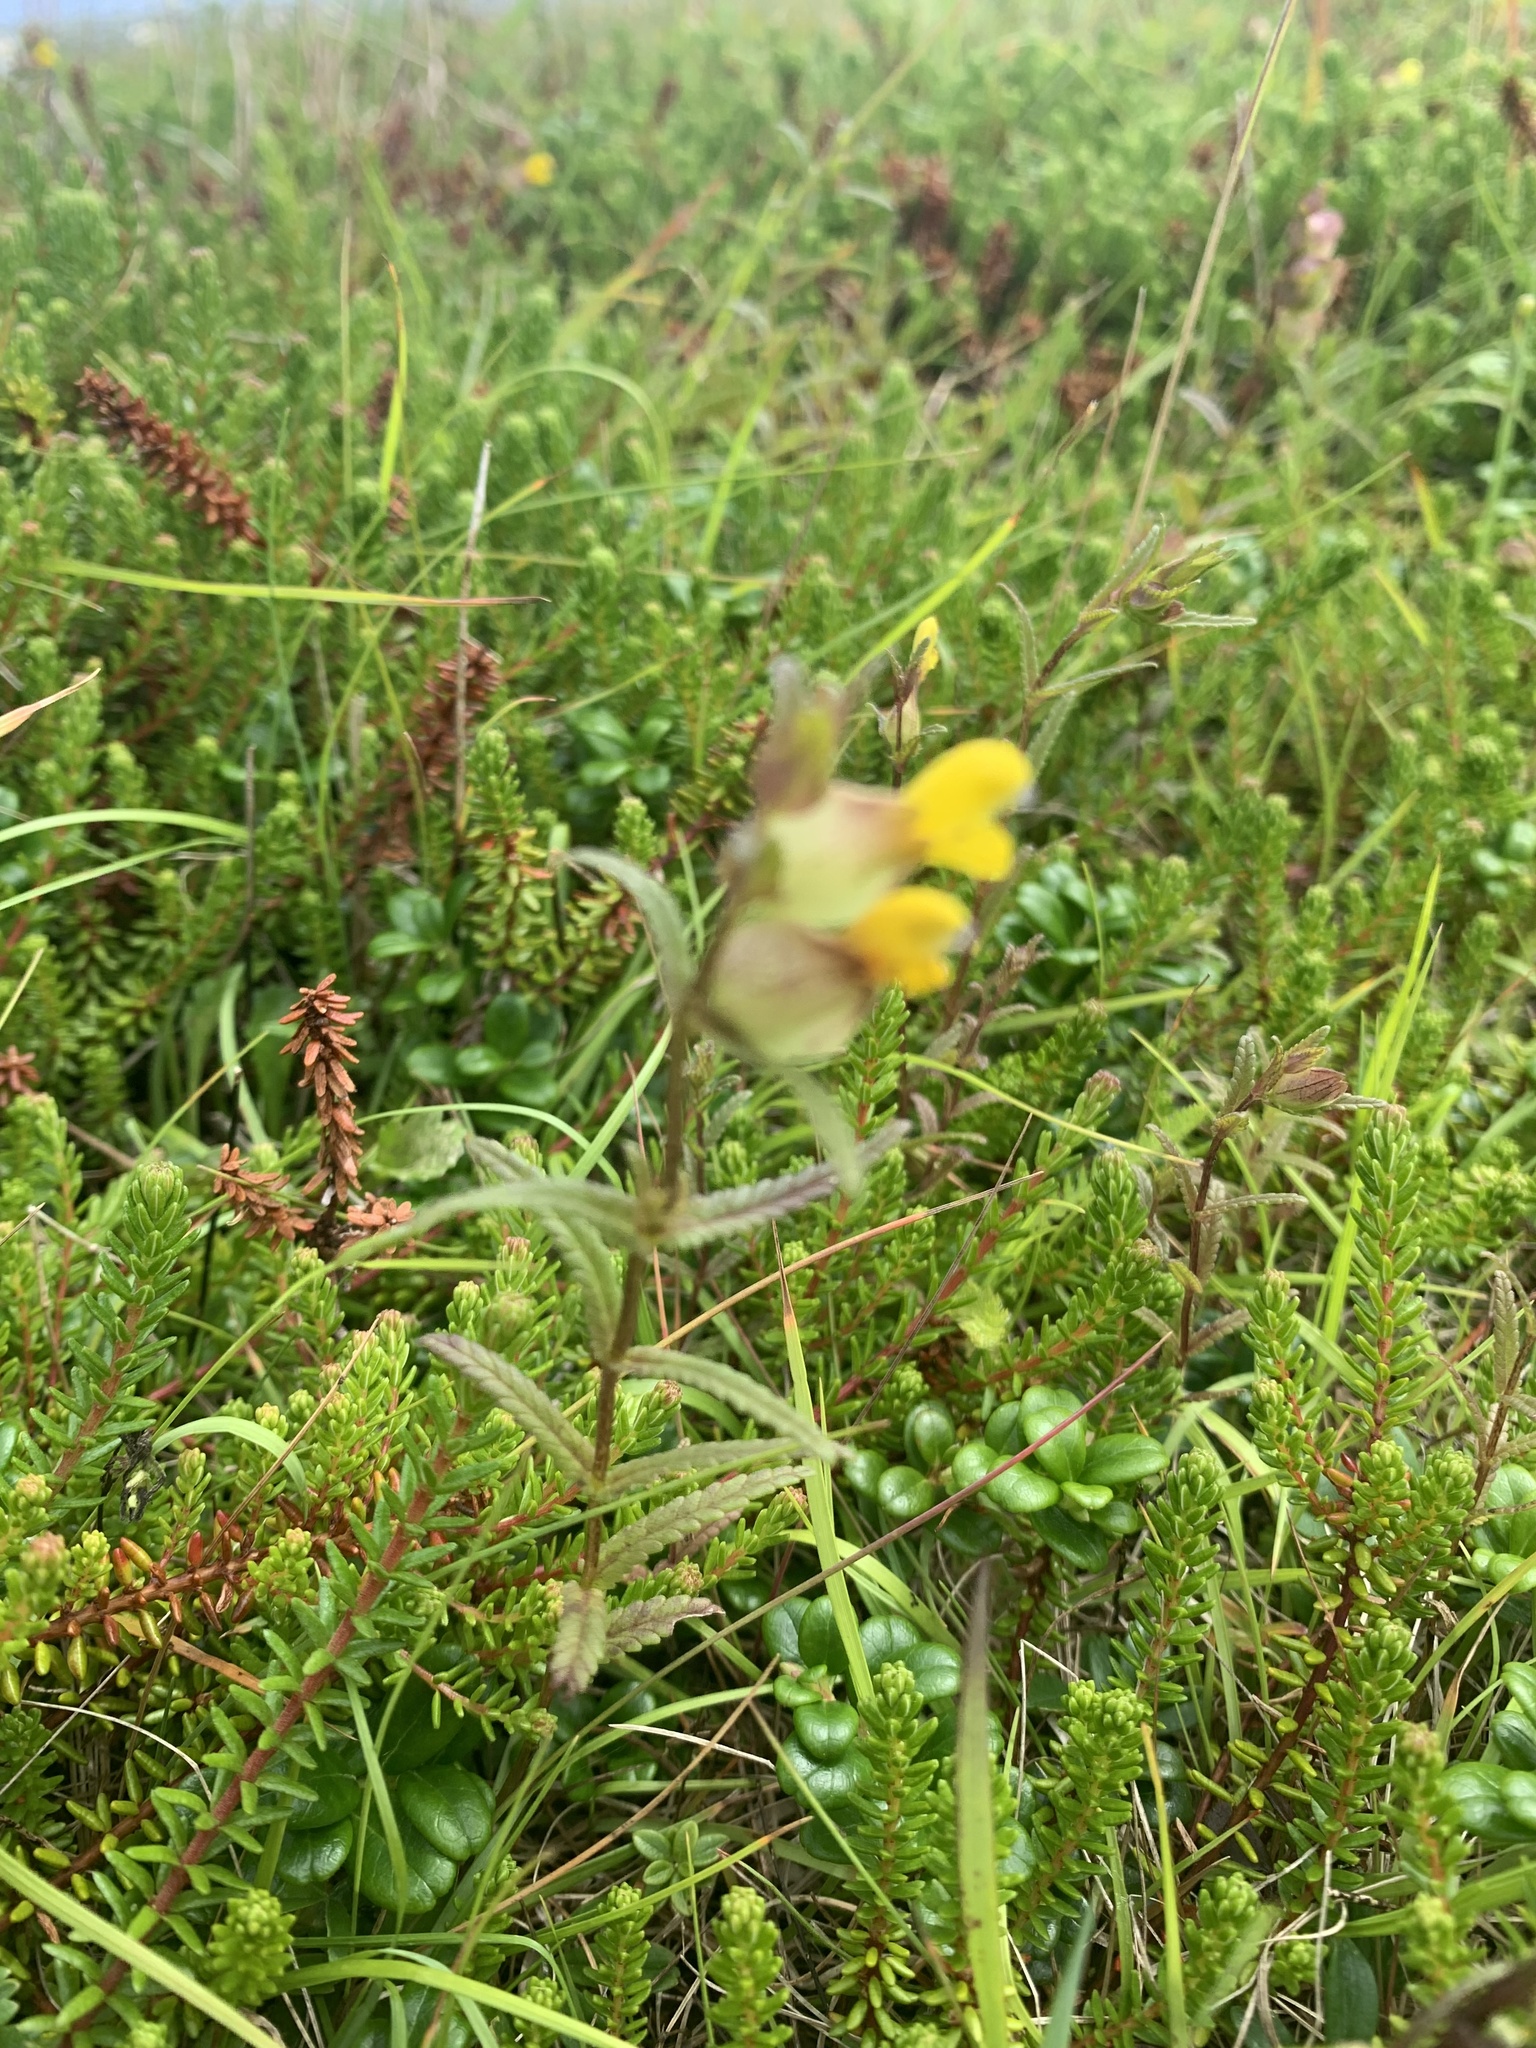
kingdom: Plantae
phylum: Tracheophyta
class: Magnoliopsida
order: Lamiales
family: Orobanchaceae
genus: Rhinanthus
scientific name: Rhinanthus minor
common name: Yellow-rattle
